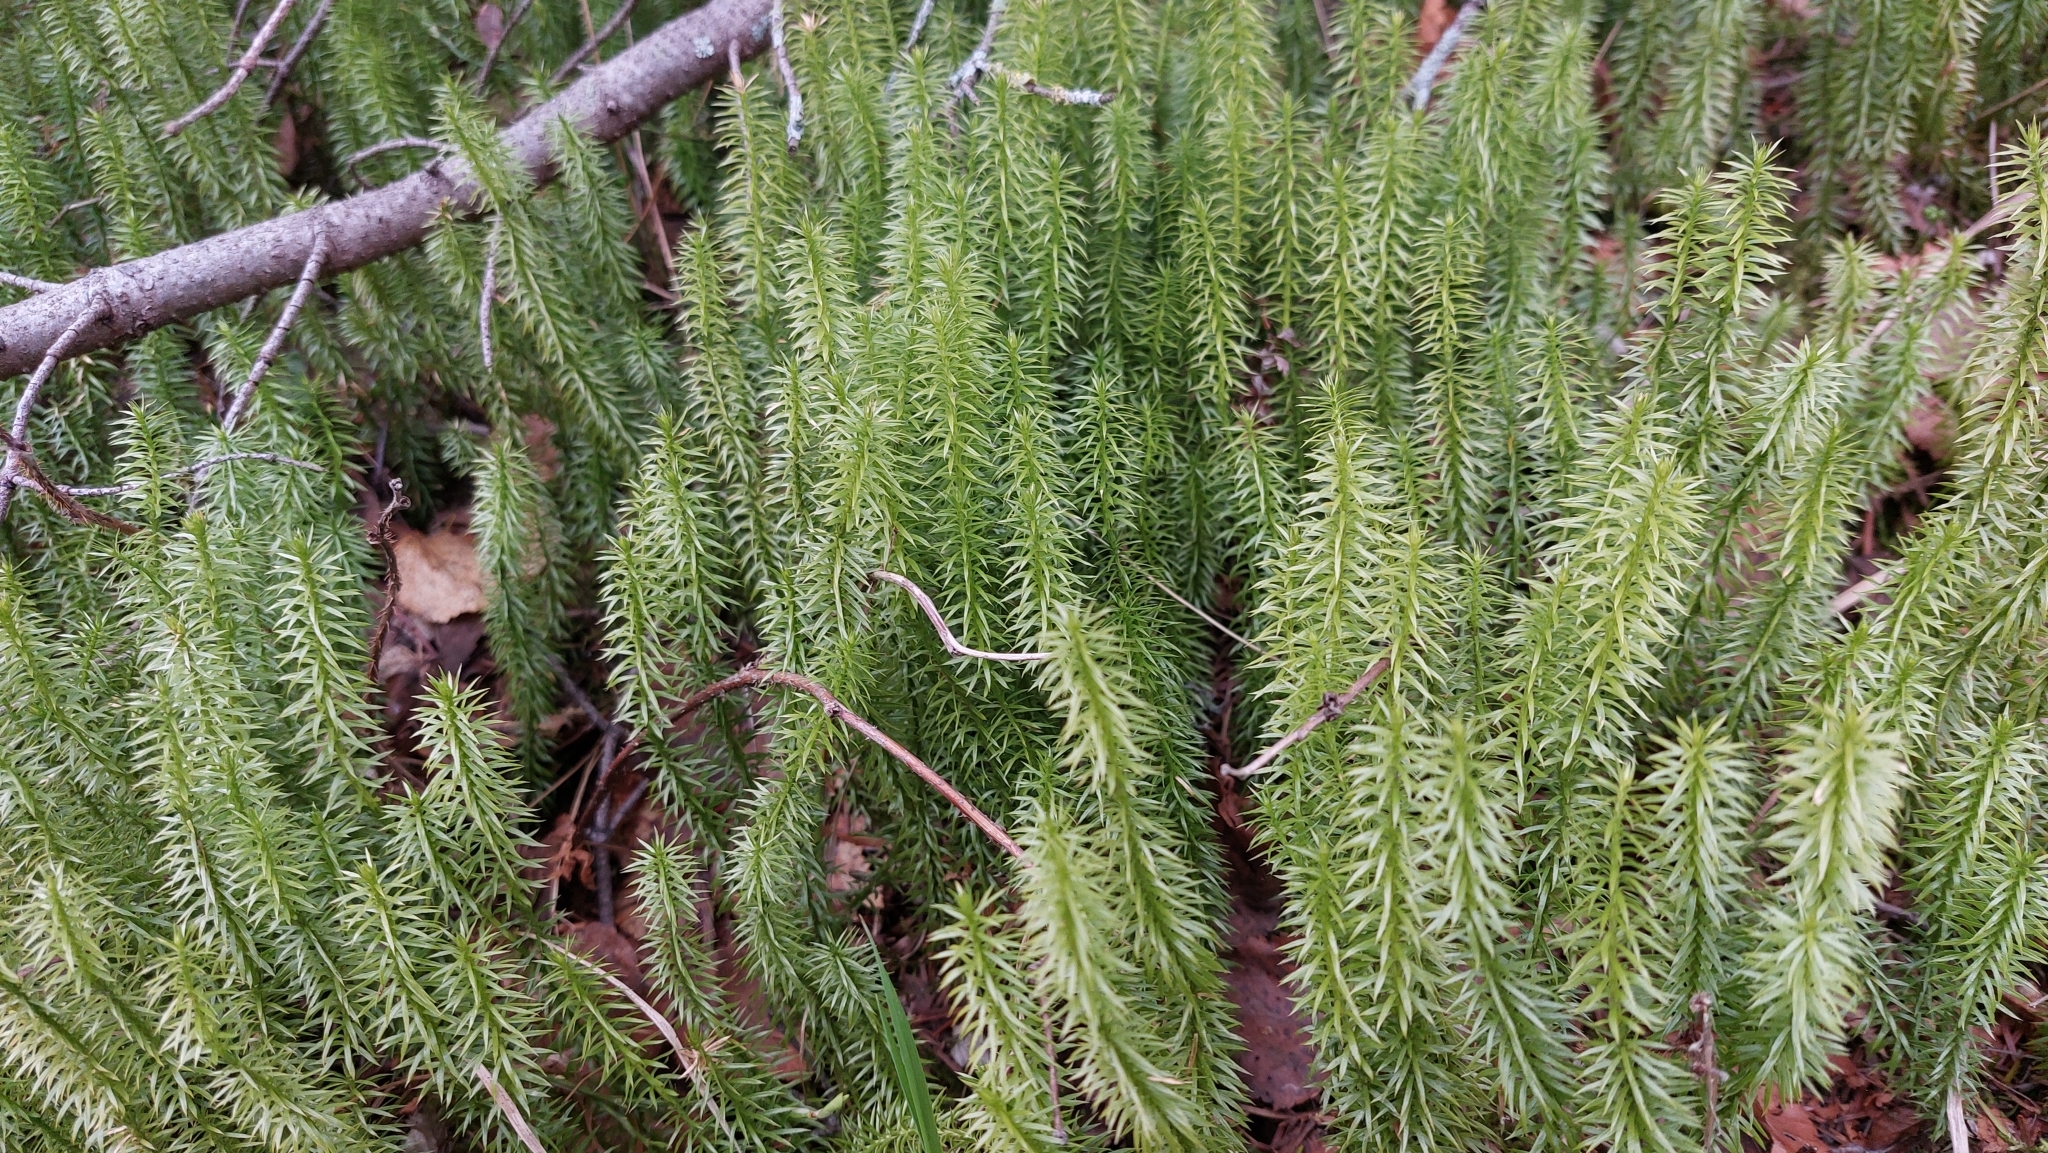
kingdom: Plantae
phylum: Tracheophyta
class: Lycopodiopsida
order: Lycopodiales
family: Lycopodiaceae
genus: Spinulum
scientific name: Spinulum annotinum
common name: Interrupted club-moss
